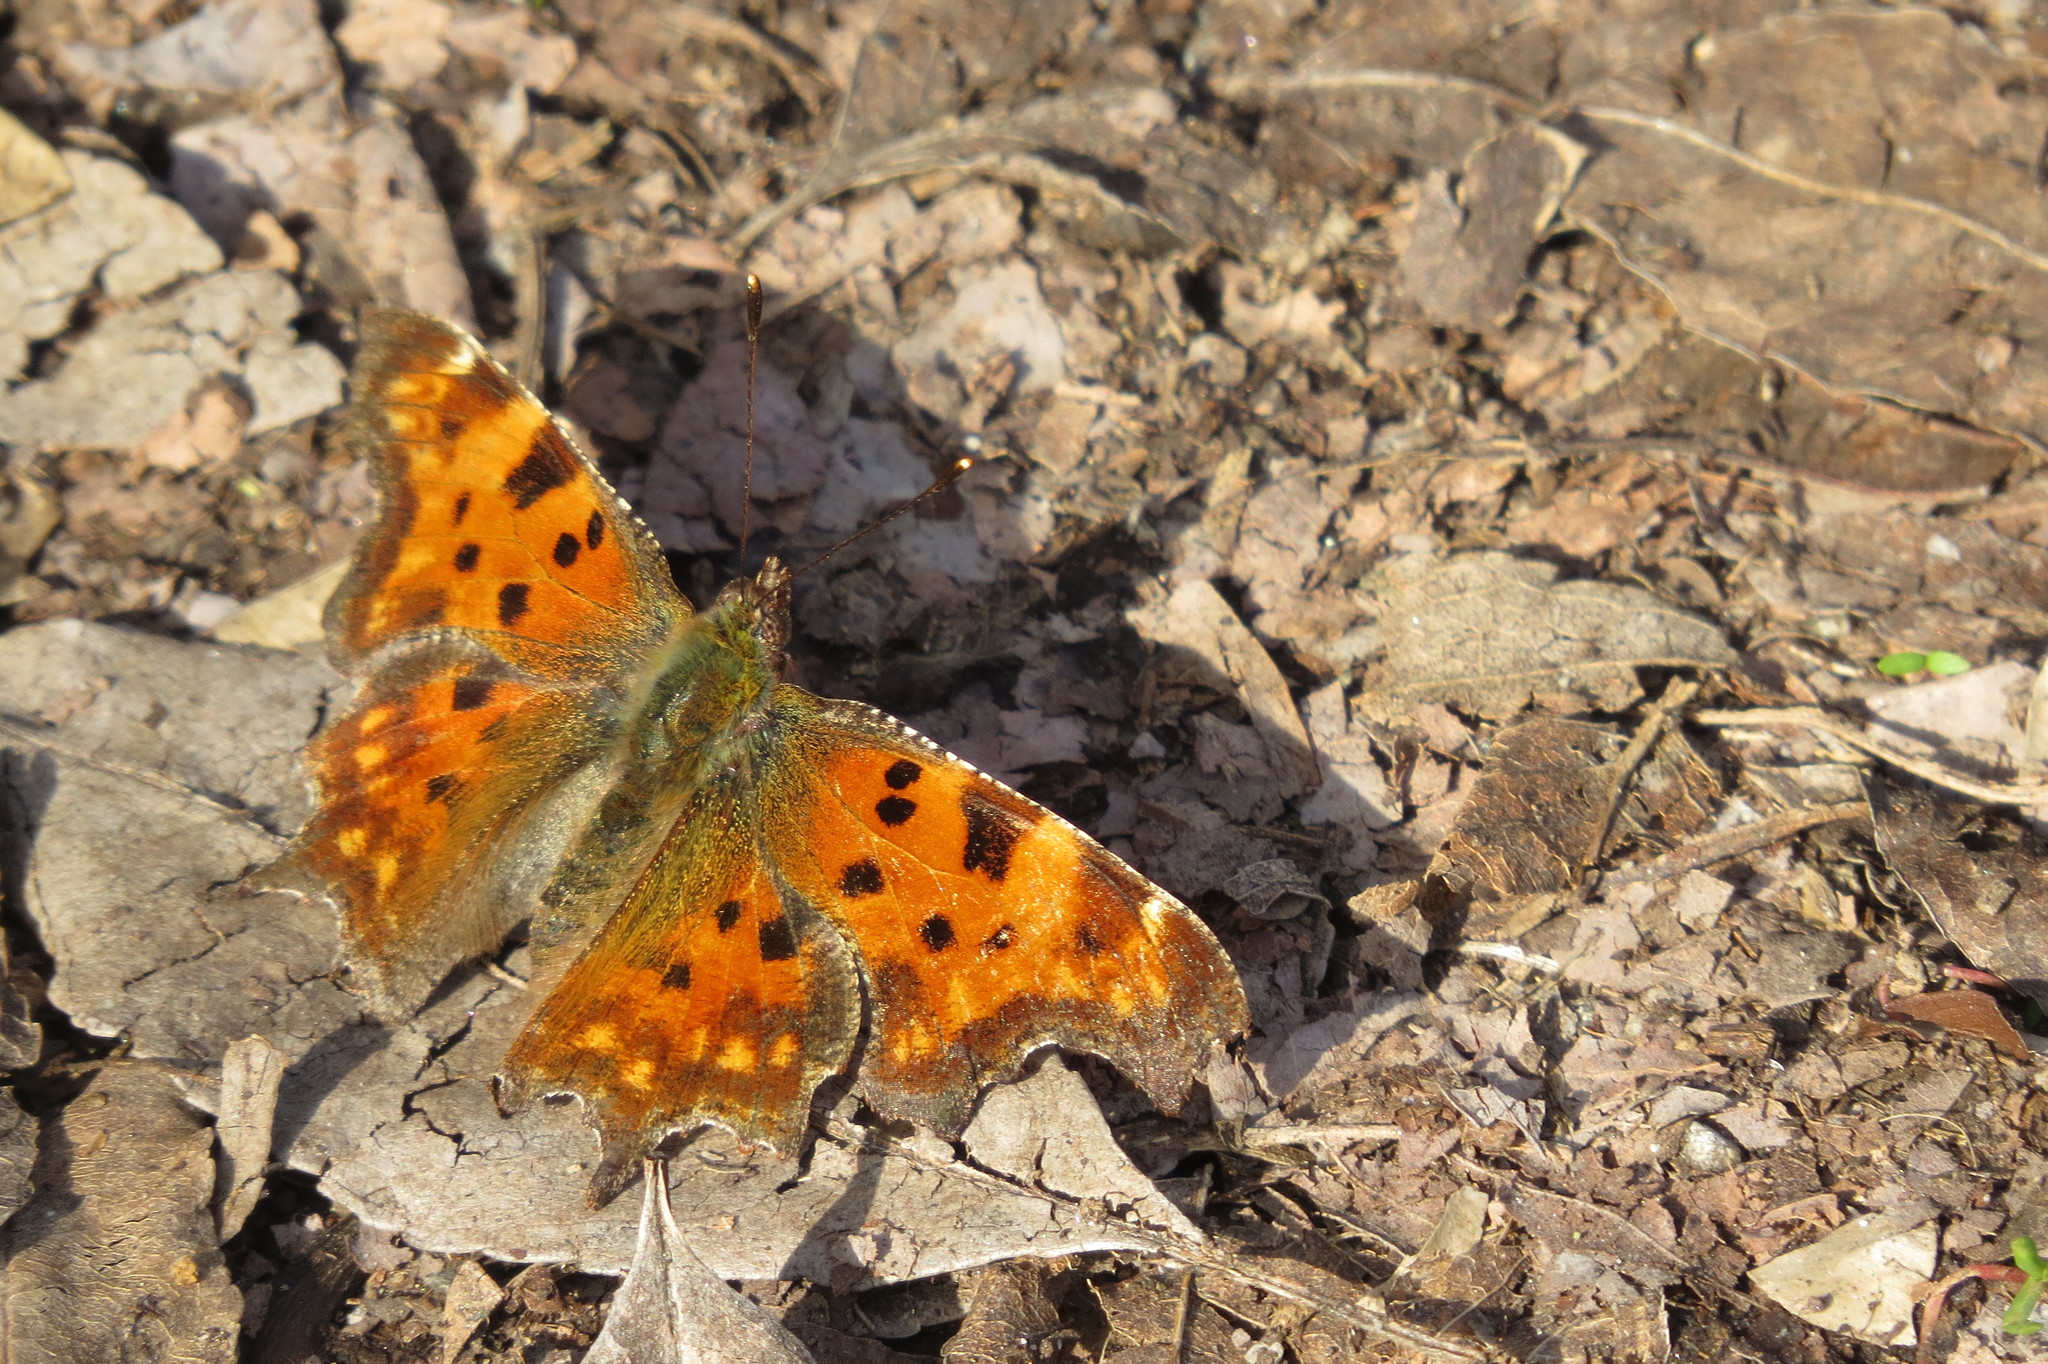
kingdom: Animalia
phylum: Arthropoda
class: Insecta
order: Lepidoptera
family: Nymphalidae
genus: Polygonia
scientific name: Polygonia c-album
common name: Comma
